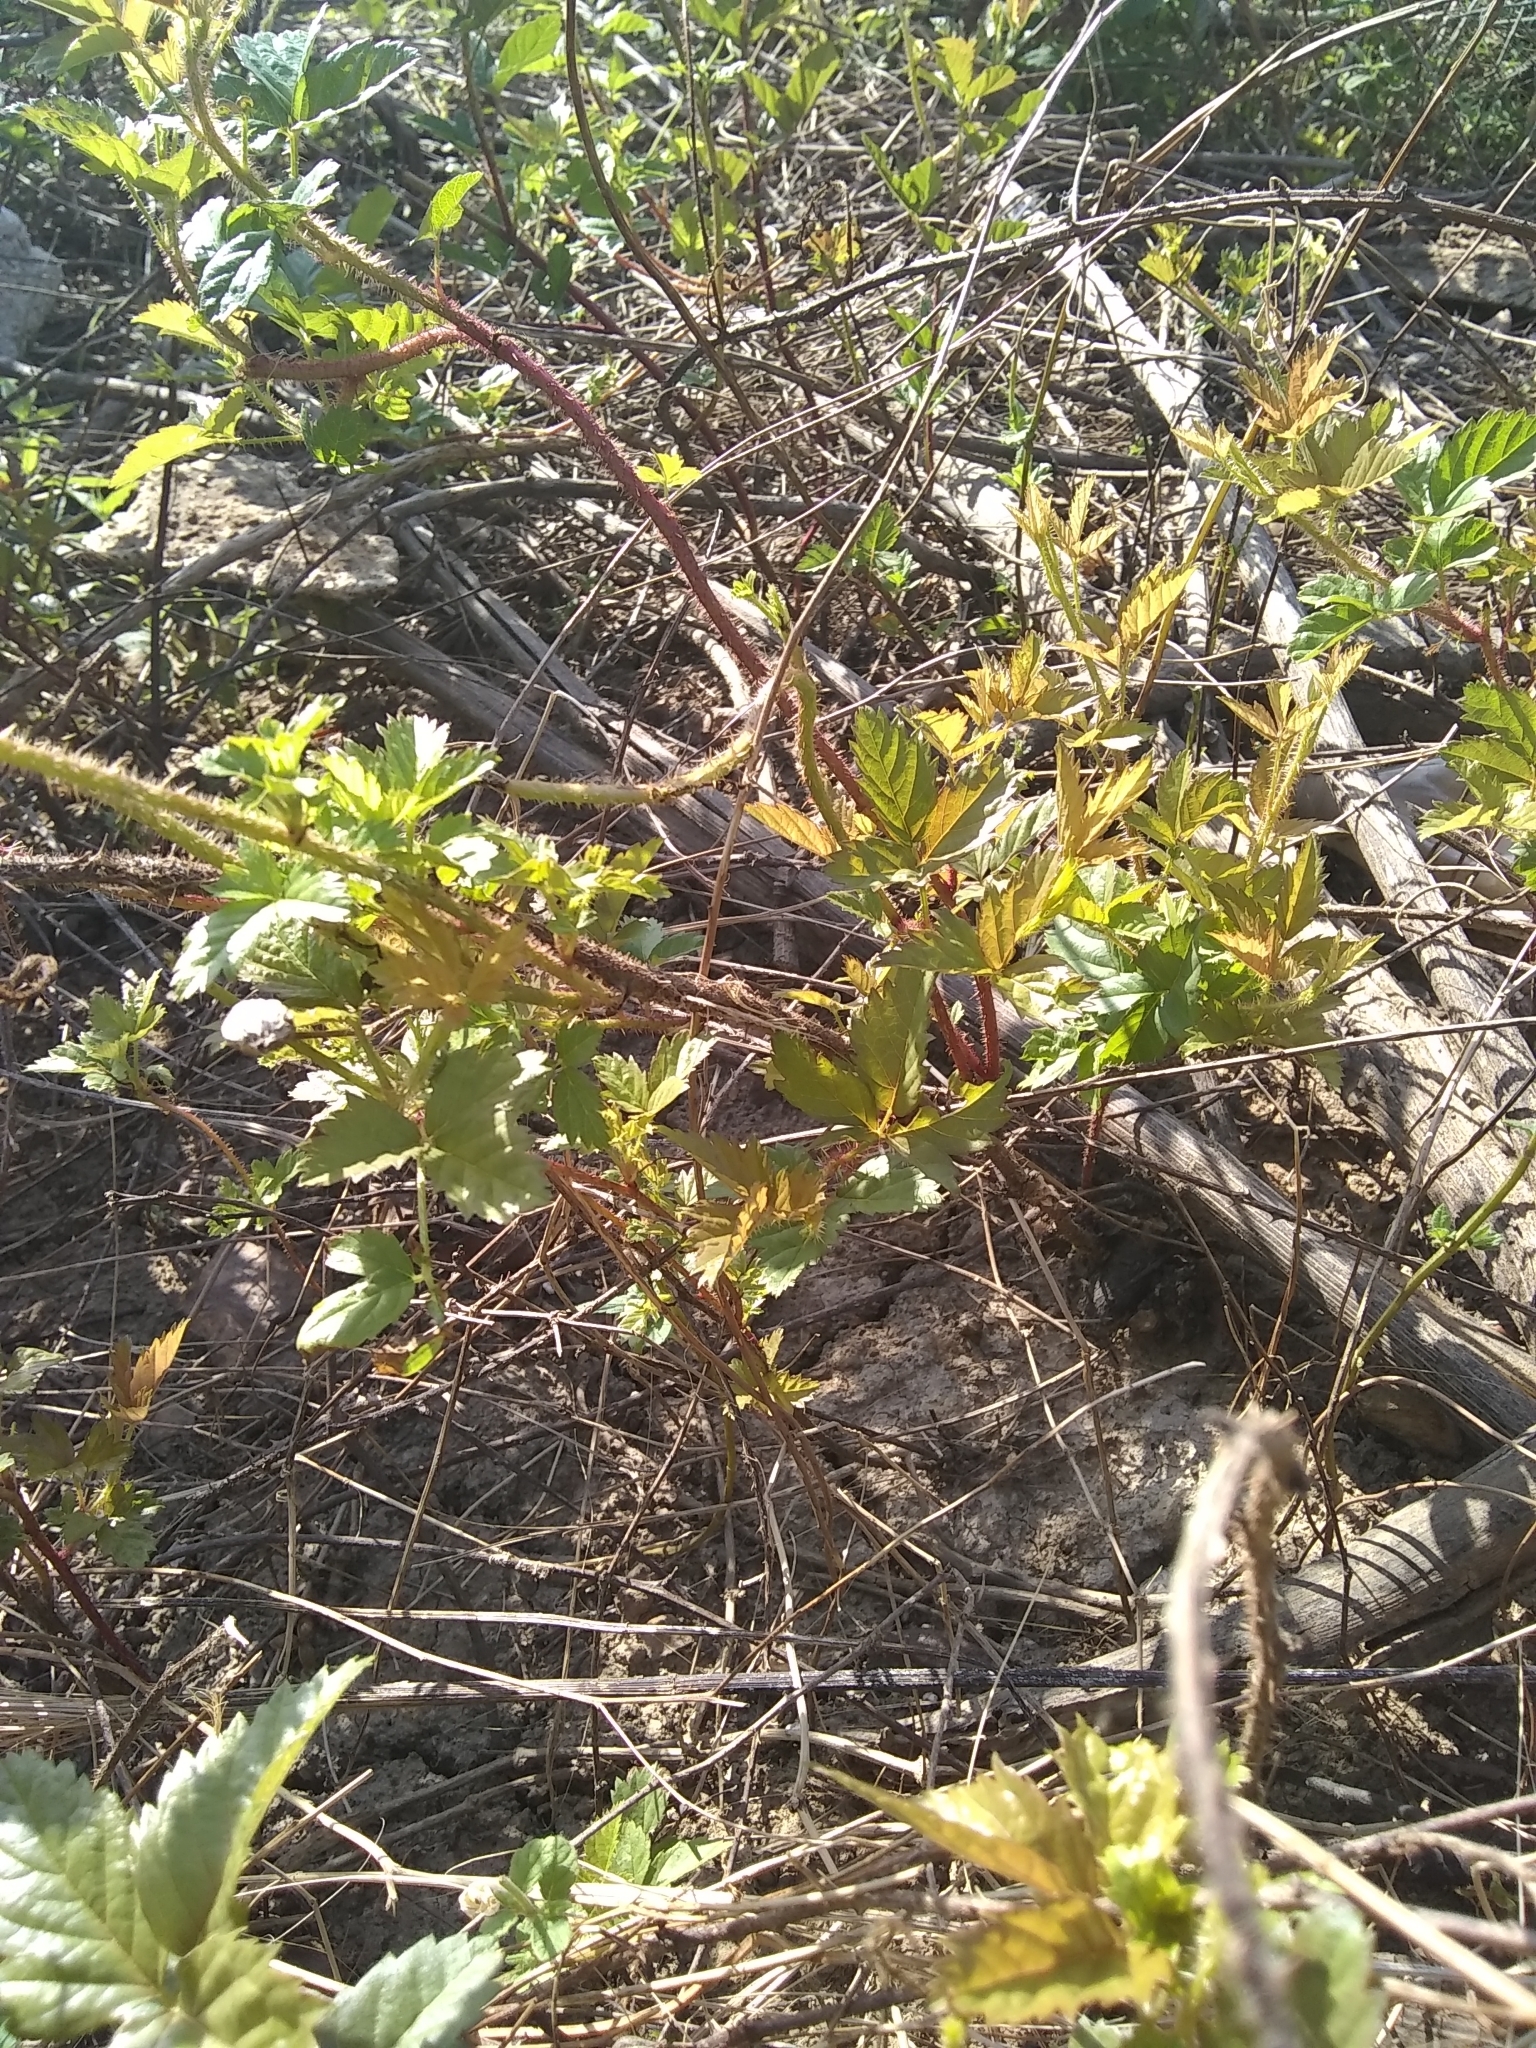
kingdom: Plantae
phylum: Tracheophyta
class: Magnoliopsida
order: Rosales
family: Rosaceae
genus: Rubus
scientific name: Rubus trivialis
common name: Southern dewberry
